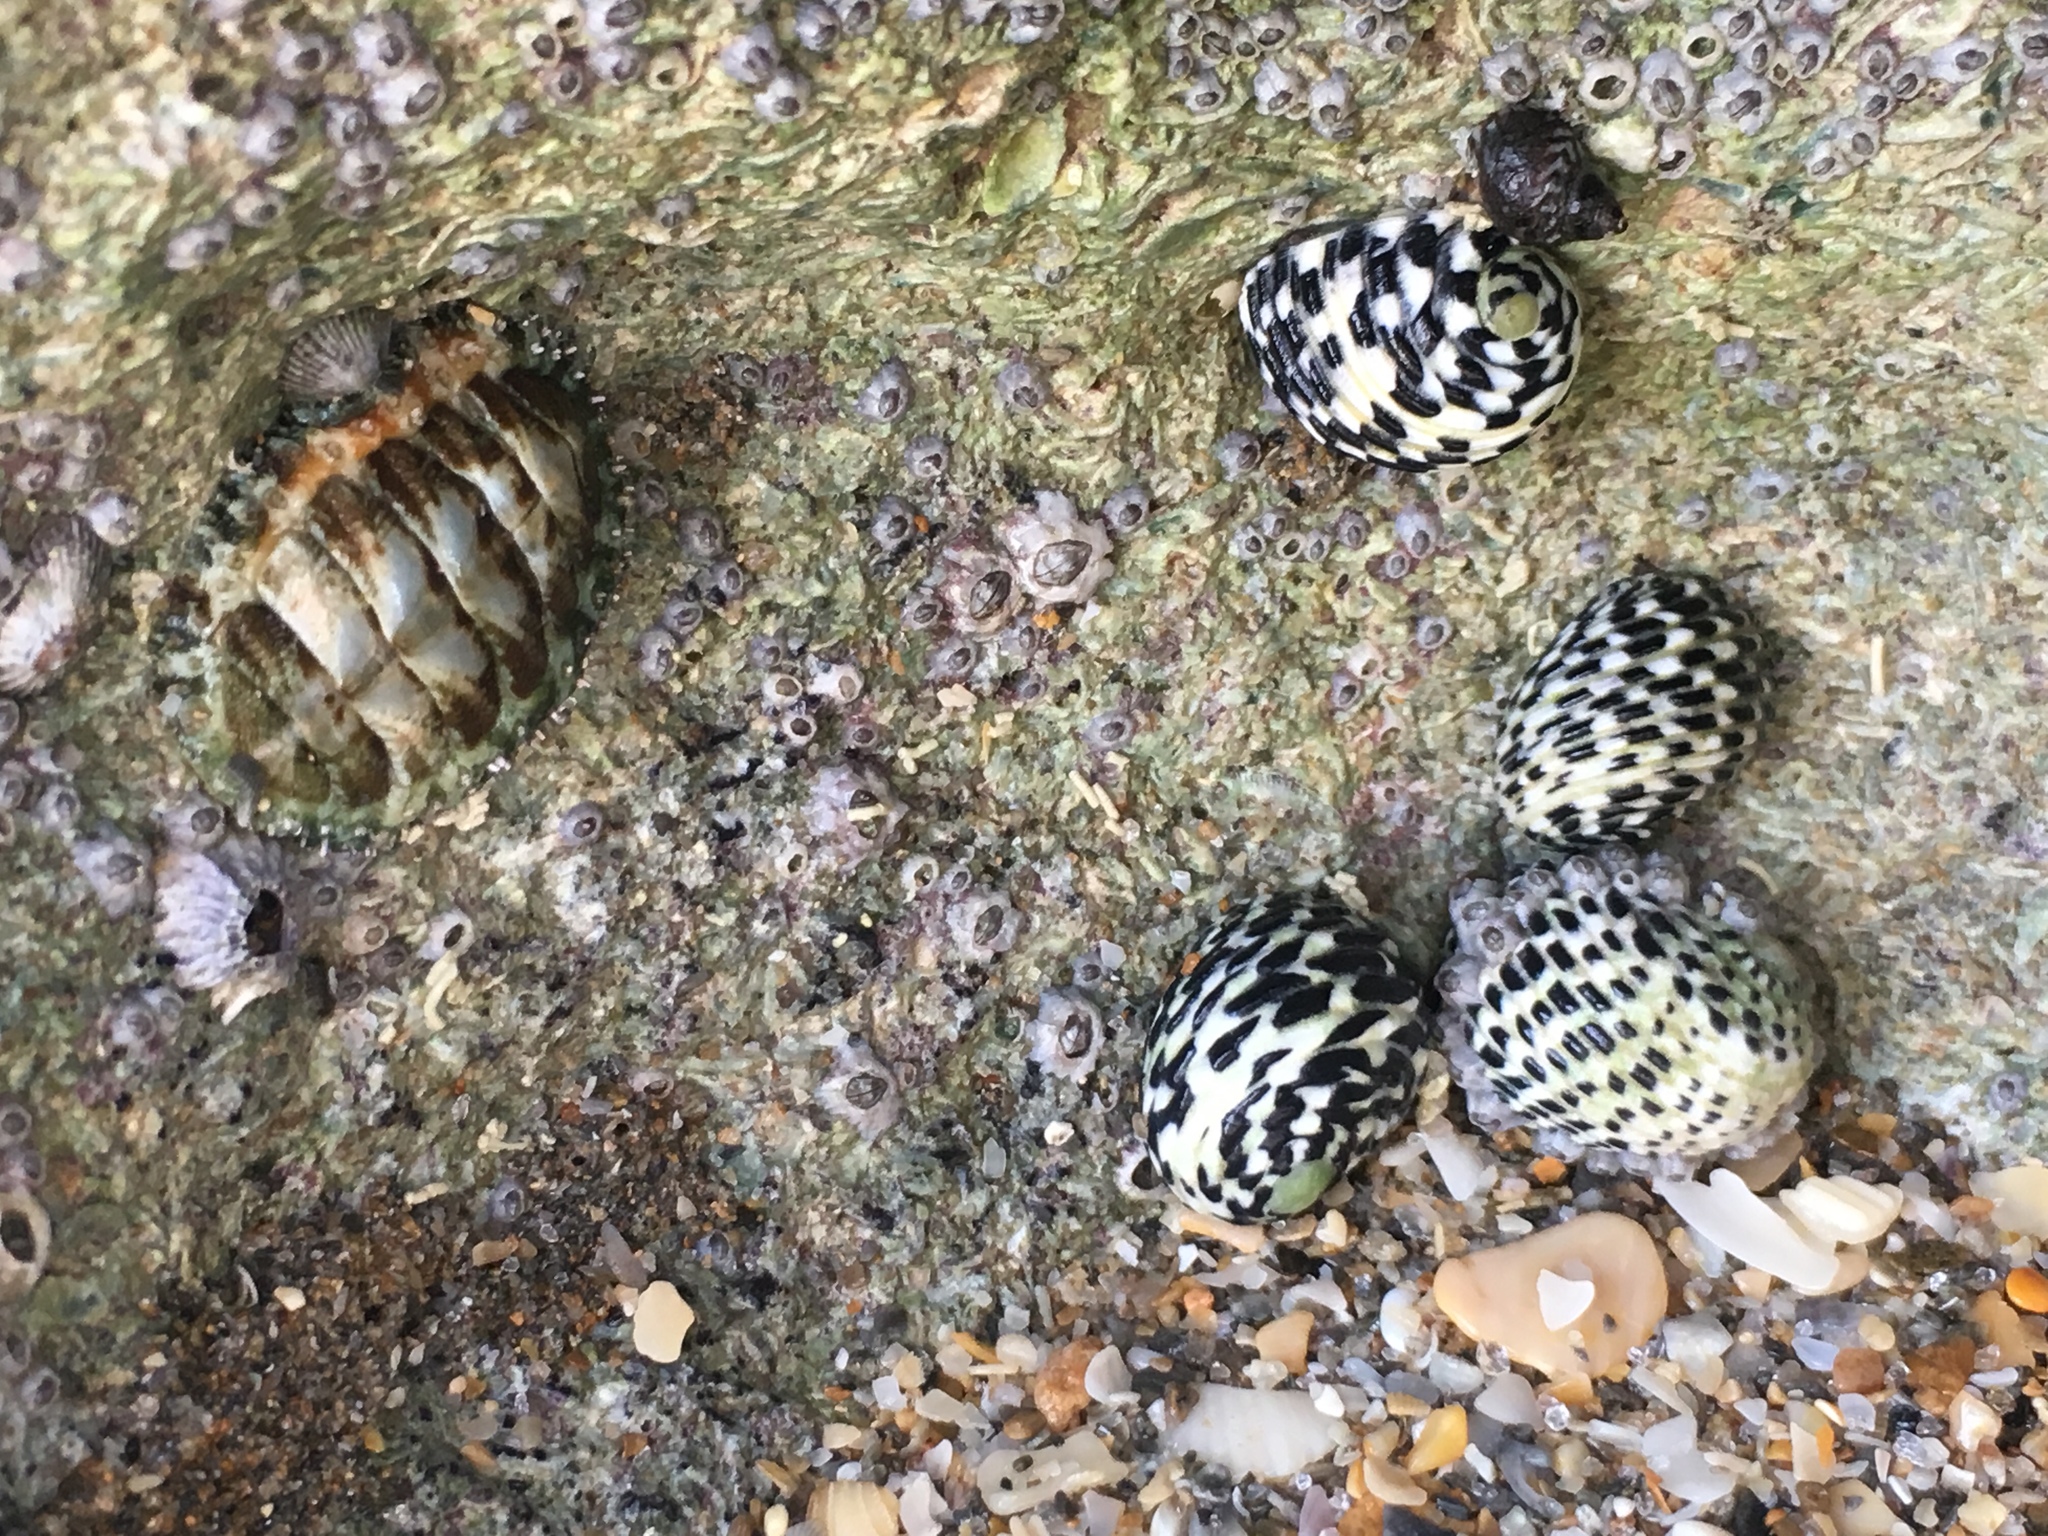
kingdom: Animalia
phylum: Mollusca
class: Gastropoda
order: Cycloneritida
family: Neritidae
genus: Nerita
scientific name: Nerita tessellata
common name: Checkered nerite
